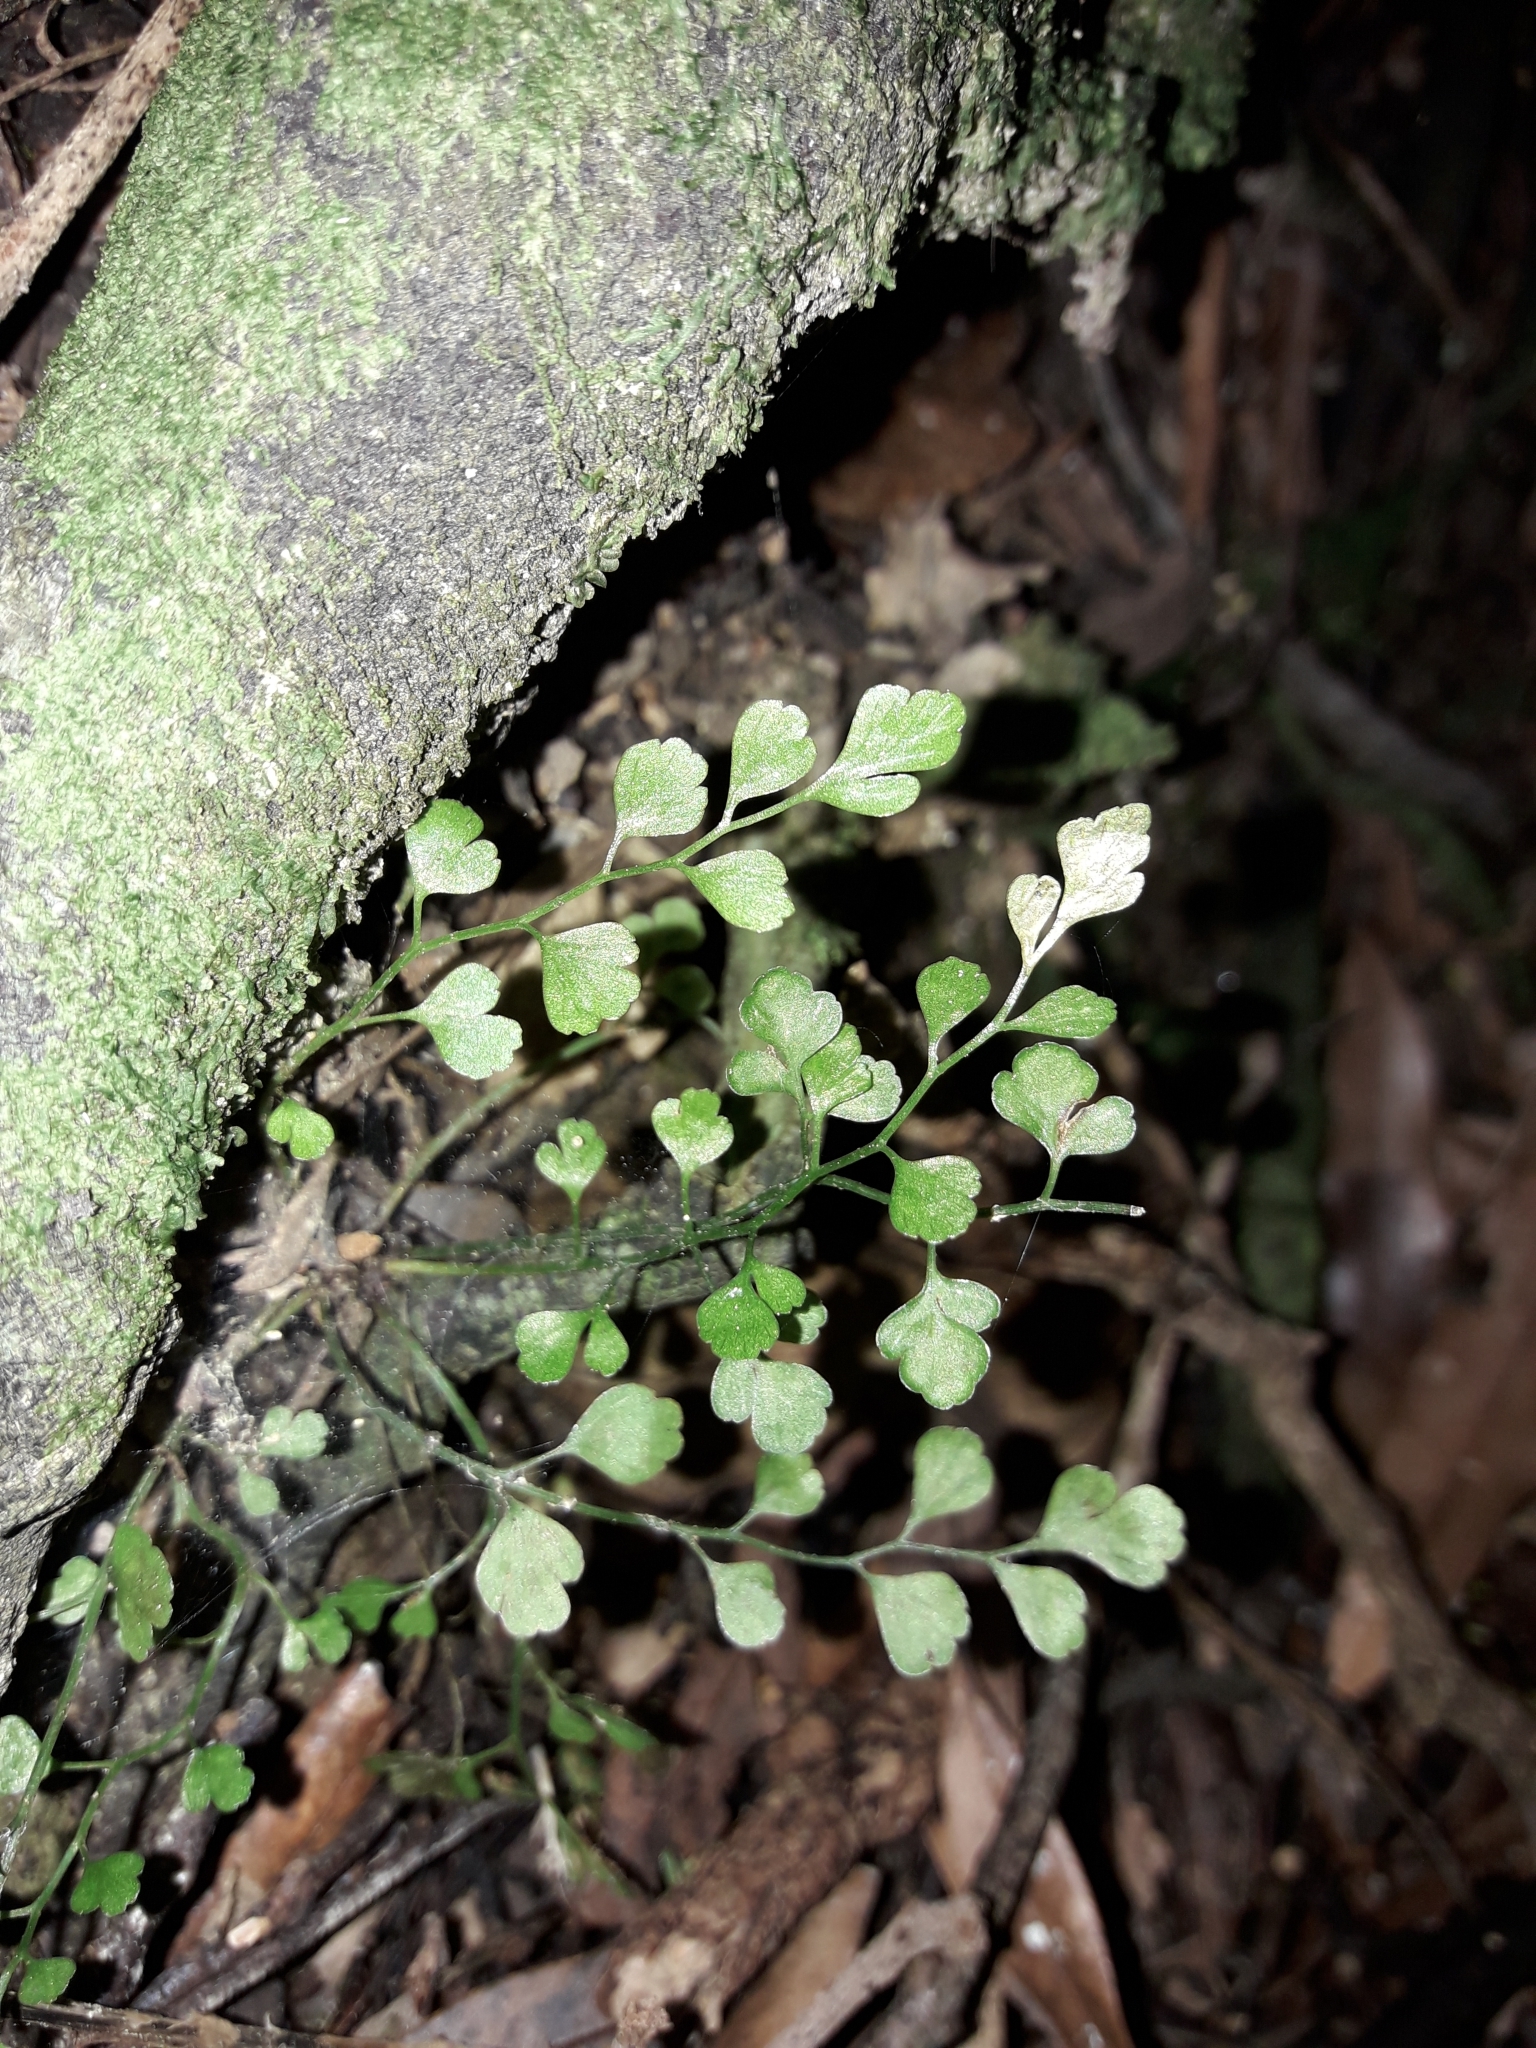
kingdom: Plantae
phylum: Tracheophyta
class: Polypodiopsida
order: Polypodiales
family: Aspleniaceae
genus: Asplenium
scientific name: Asplenium hookerianum
